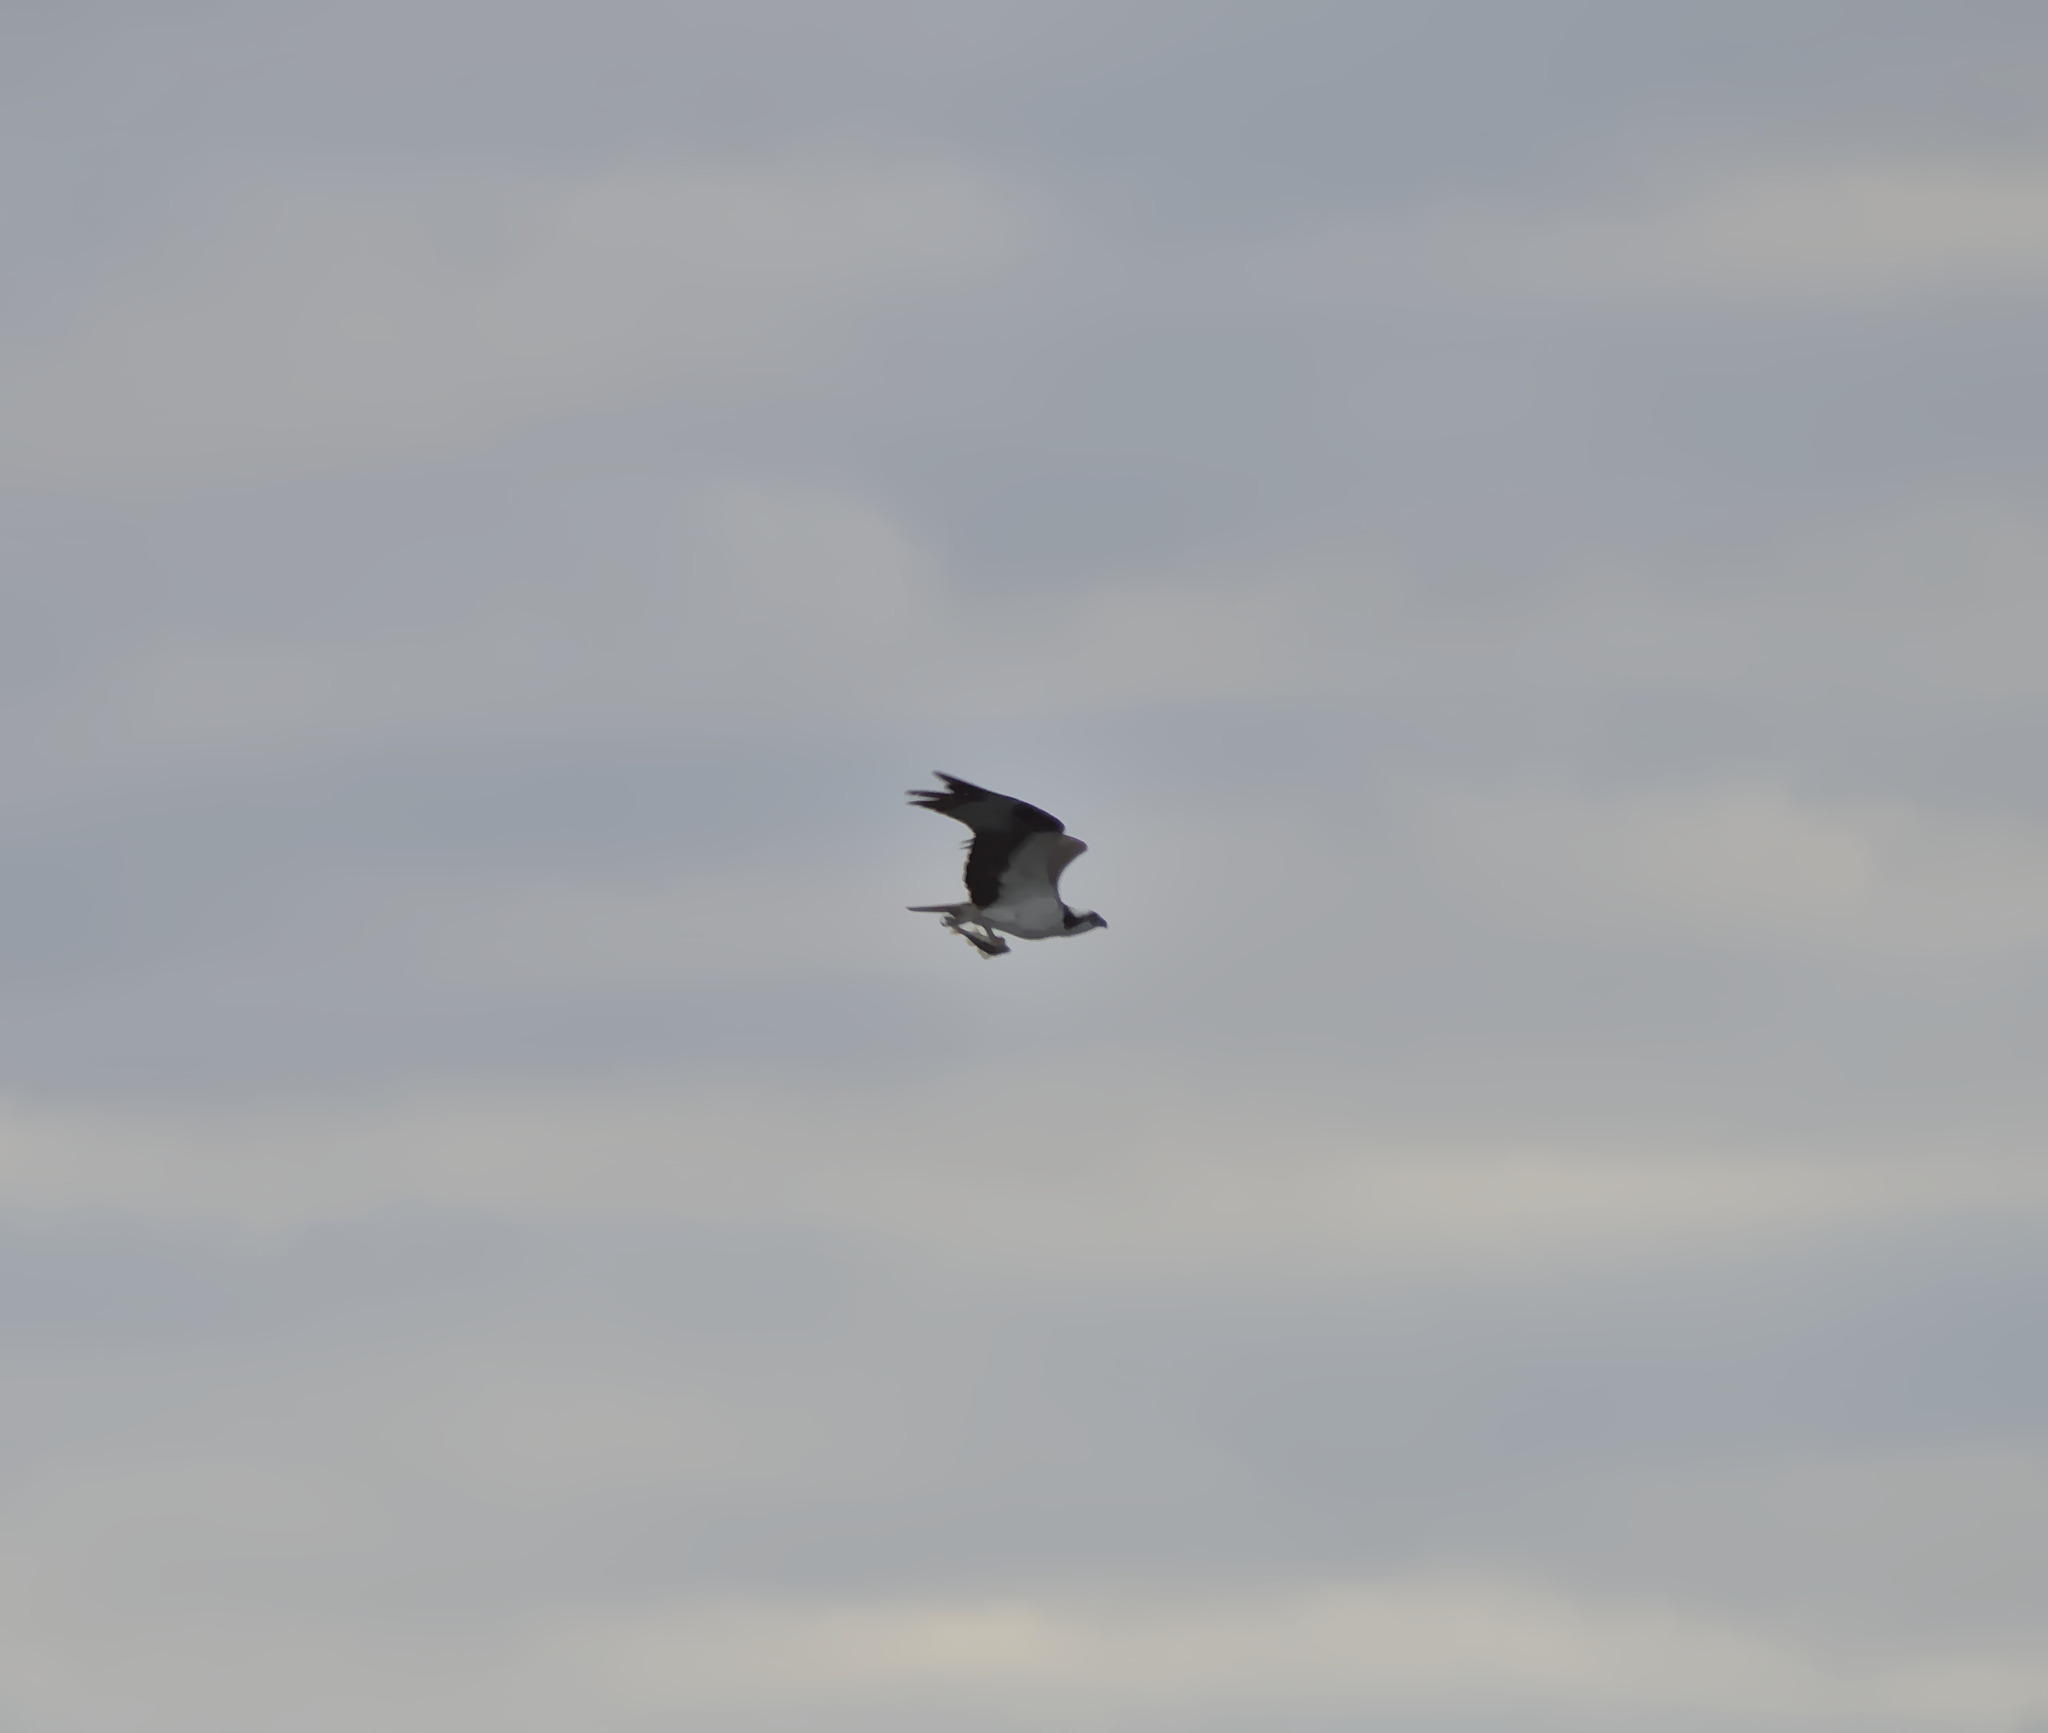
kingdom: Animalia
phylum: Chordata
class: Aves
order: Accipitriformes
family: Pandionidae
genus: Pandion
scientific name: Pandion haliaetus
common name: Osprey
